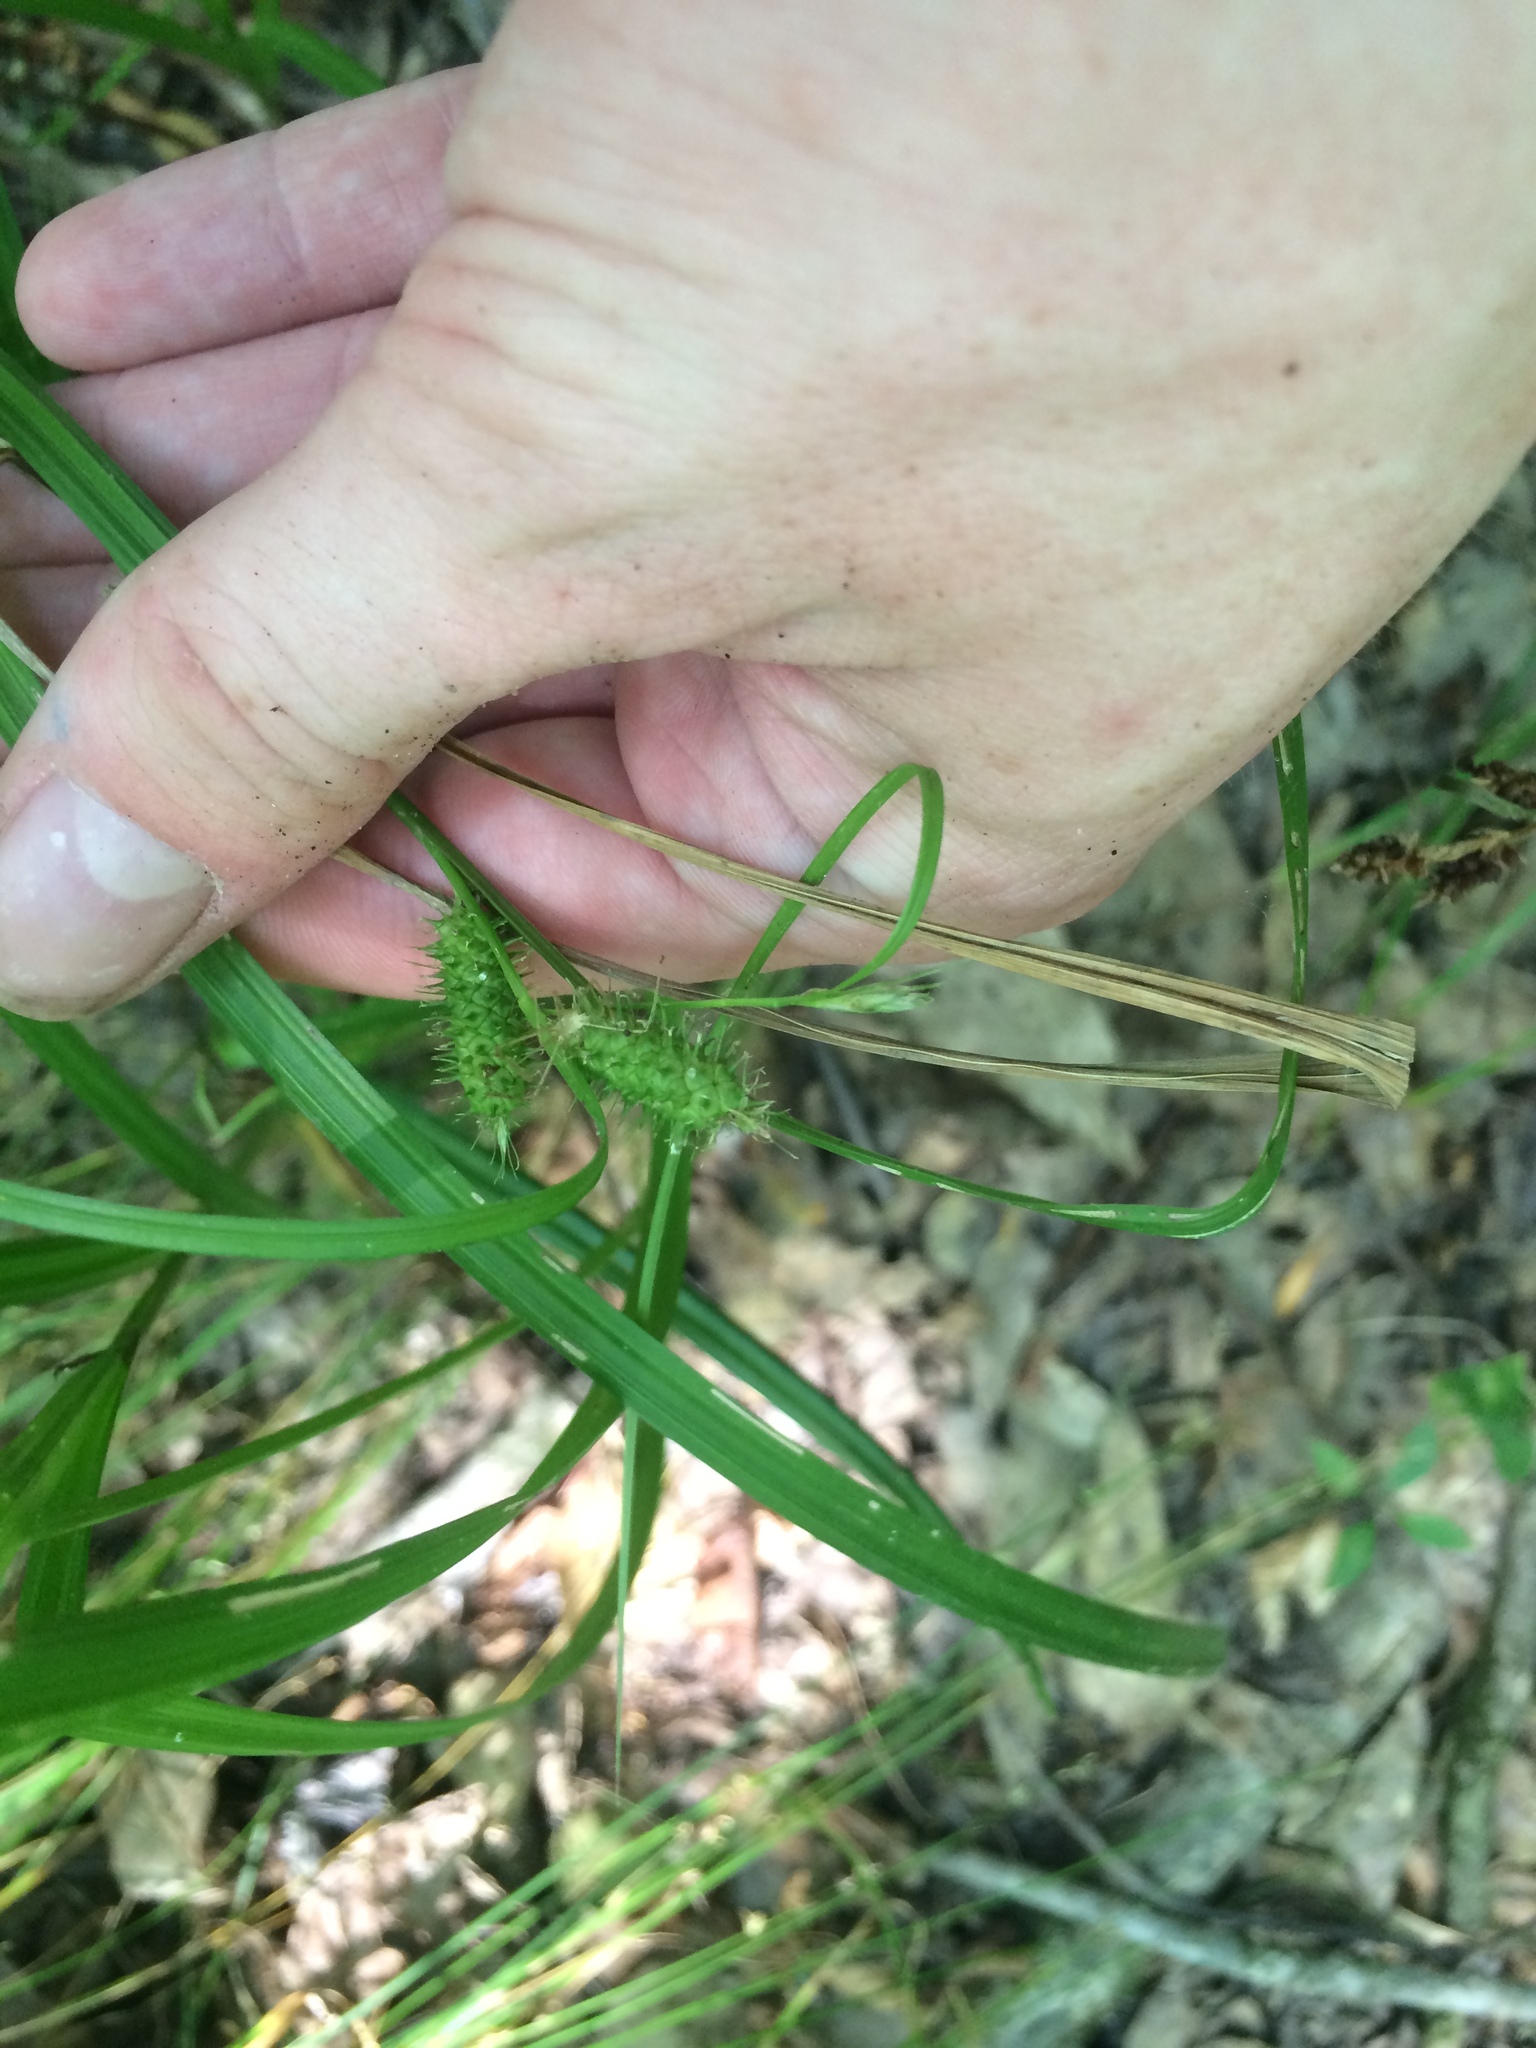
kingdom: Plantae
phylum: Tracheophyta
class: Liliopsida
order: Poales
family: Cyperaceae
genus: Carex
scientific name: Carex frankii
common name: Frank's sedge
